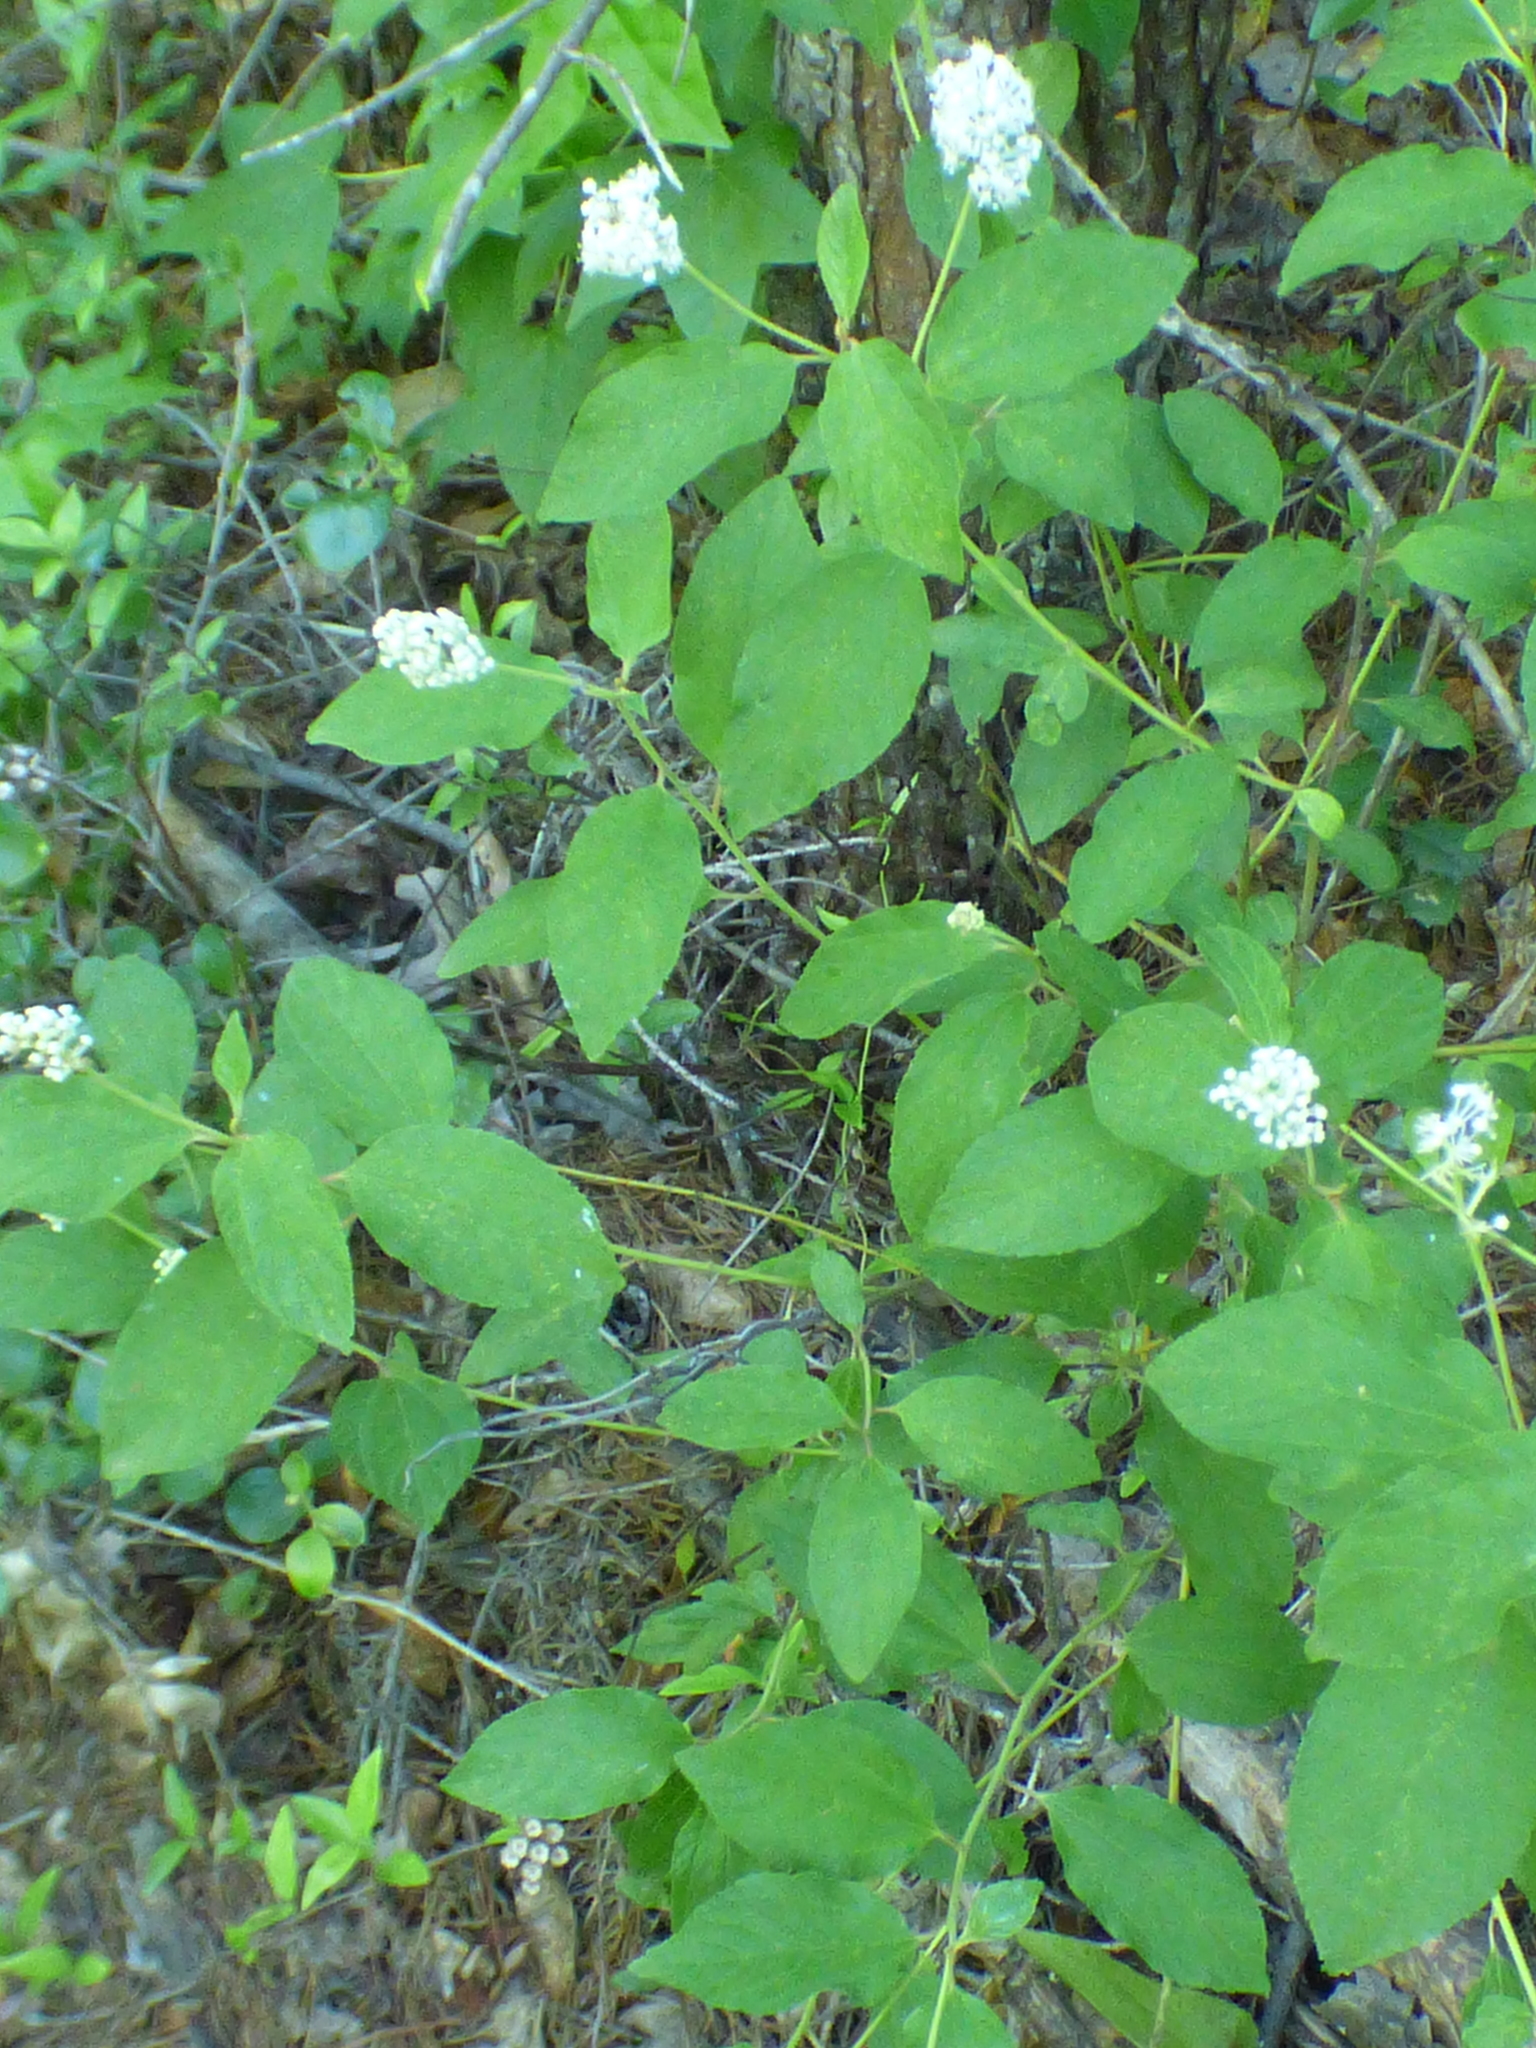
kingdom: Plantae
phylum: Tracheophyta
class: Magnoliopsida
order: Rosales
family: Rhamnaceae
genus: Ceanothus
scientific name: Ceanothus americanus
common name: Redroot
